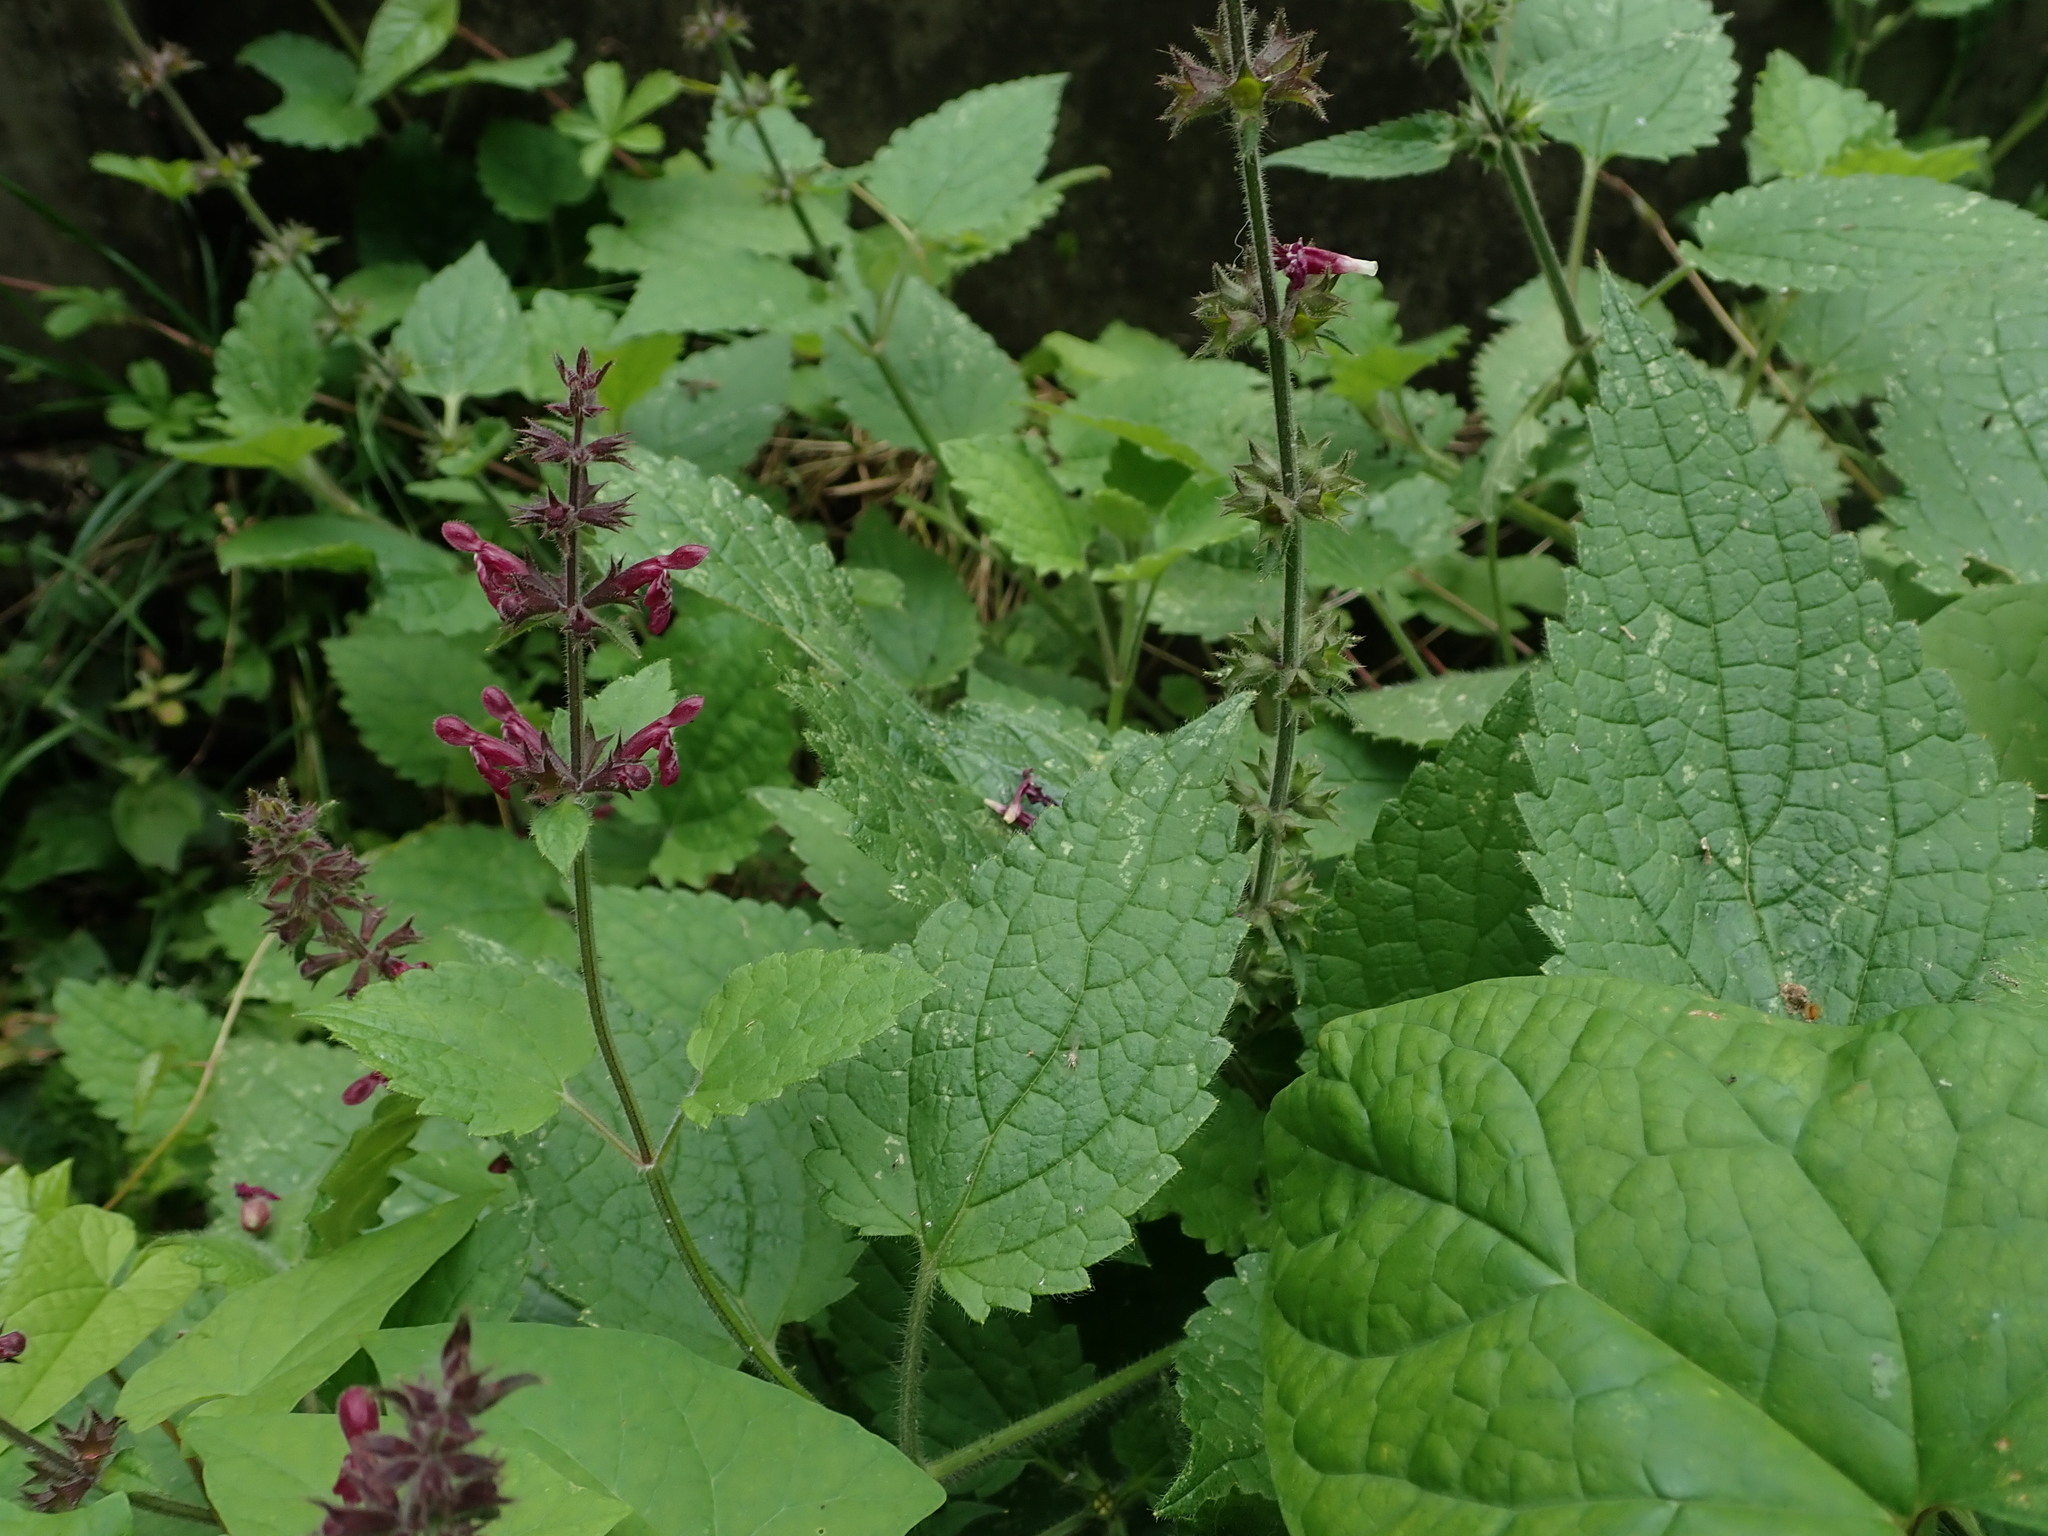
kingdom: Plantae
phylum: Tracheophyta
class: Magnoliopsida
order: Lamiales
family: Lamiaceae
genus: Stachys
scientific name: Stachys sylvatica
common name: Hedge woundwort
